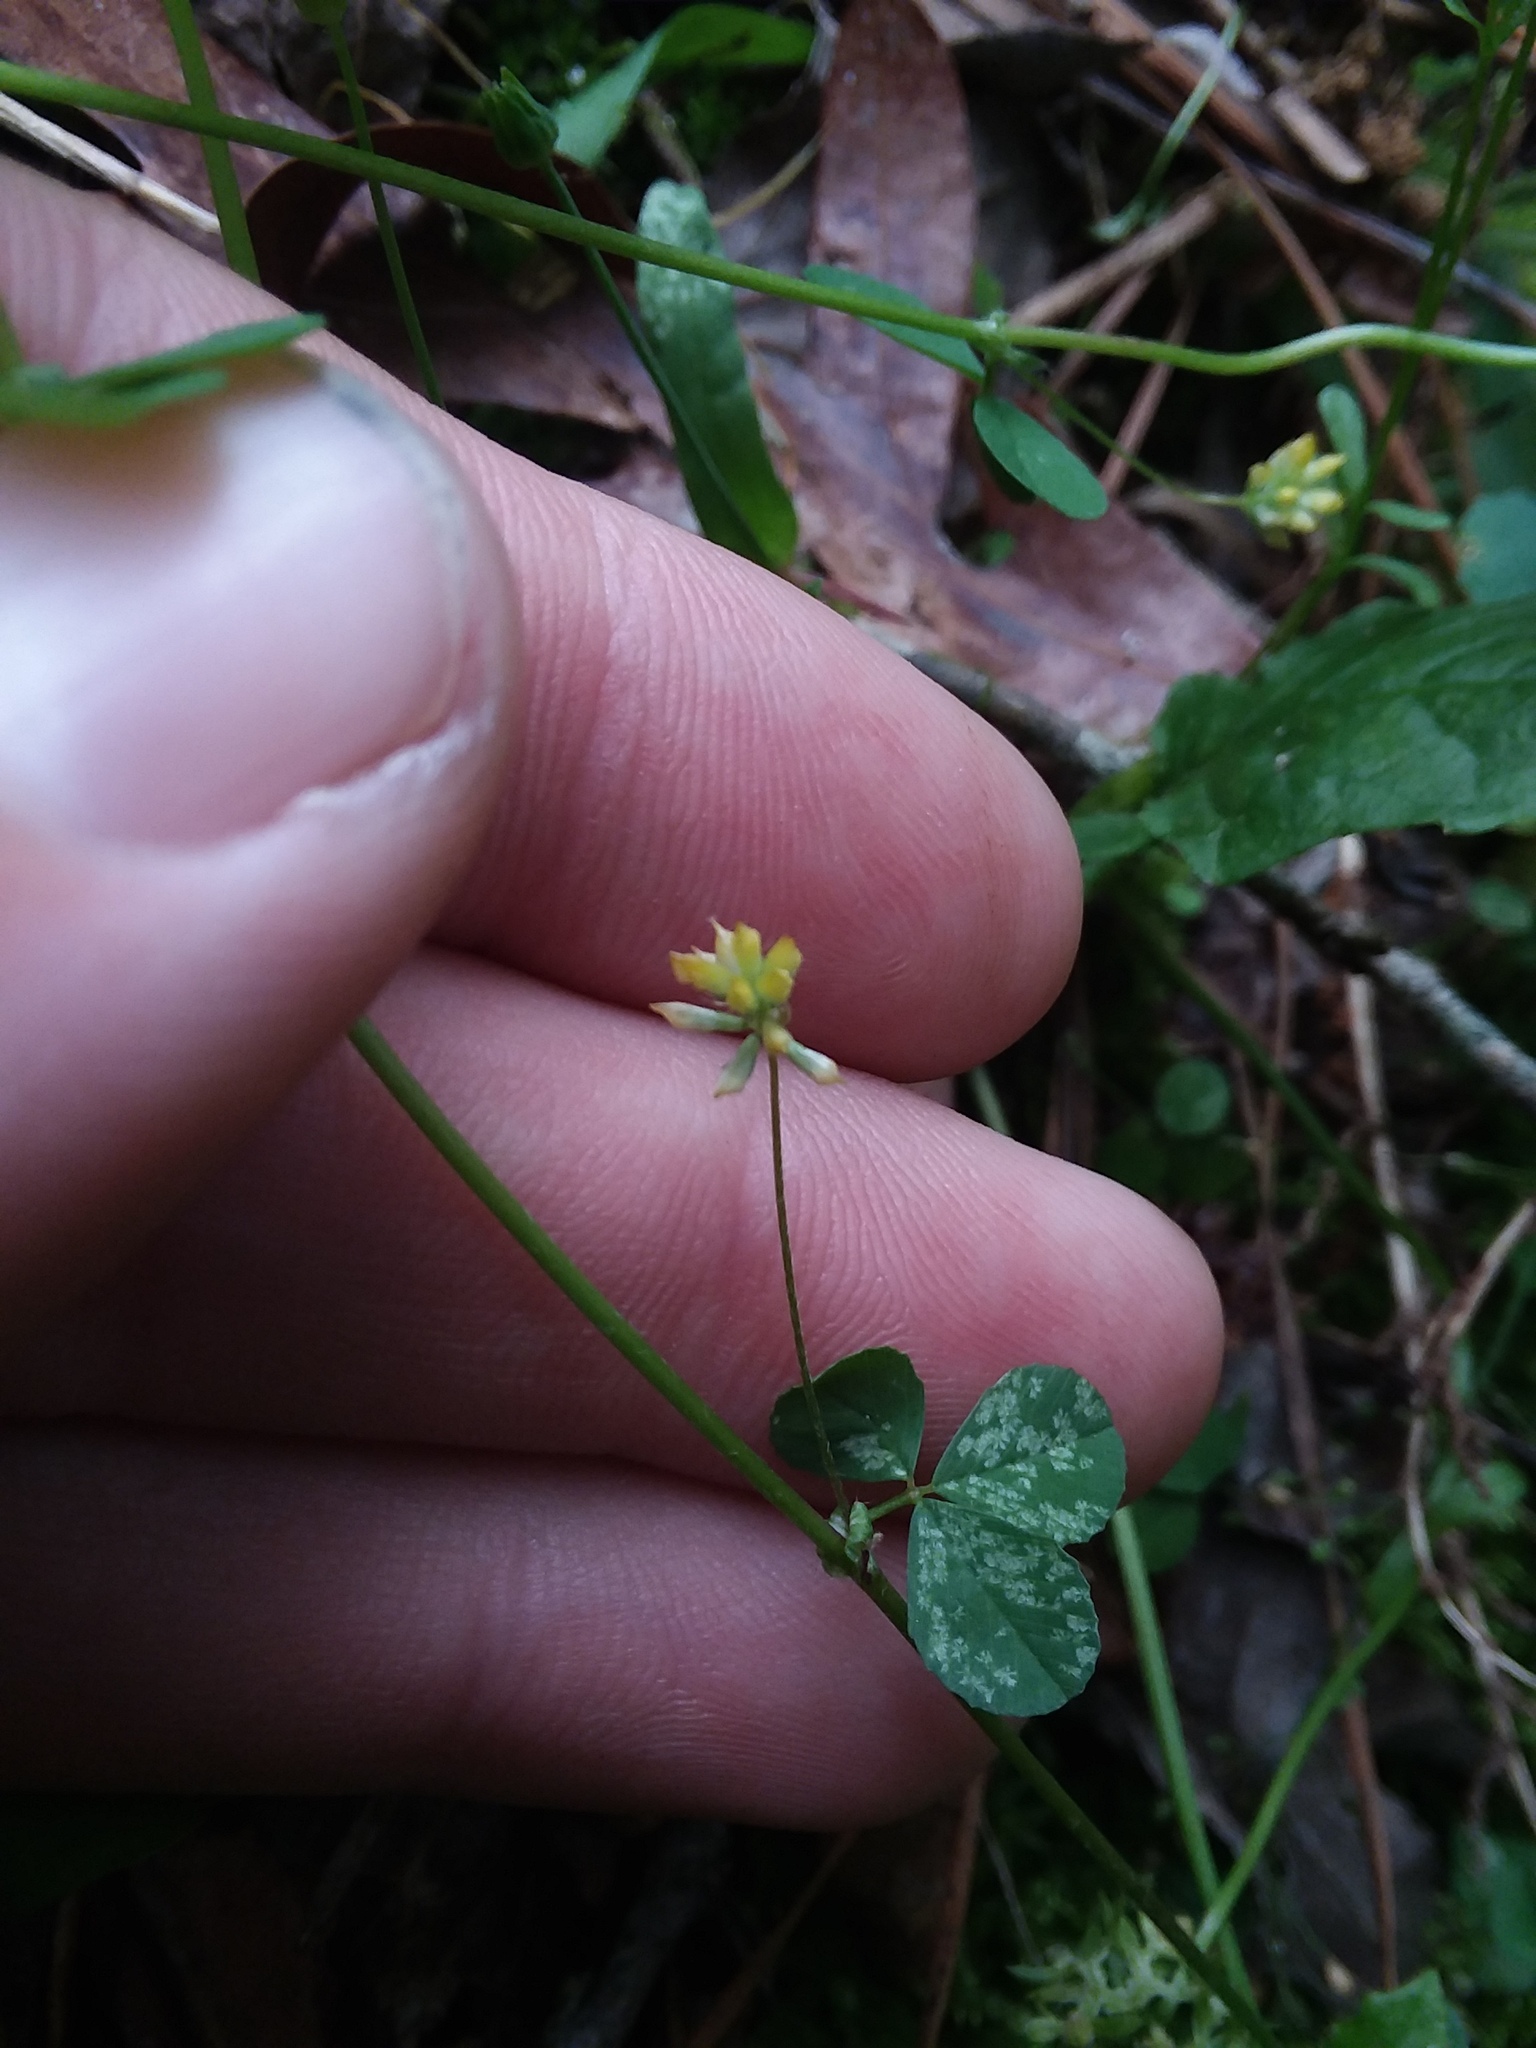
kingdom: Plantae
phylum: Tracheophyta
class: Magnoliopsida
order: Fabales
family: Fabaceae
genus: Trifolium
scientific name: Trifolium dubium
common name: Suckling clover
